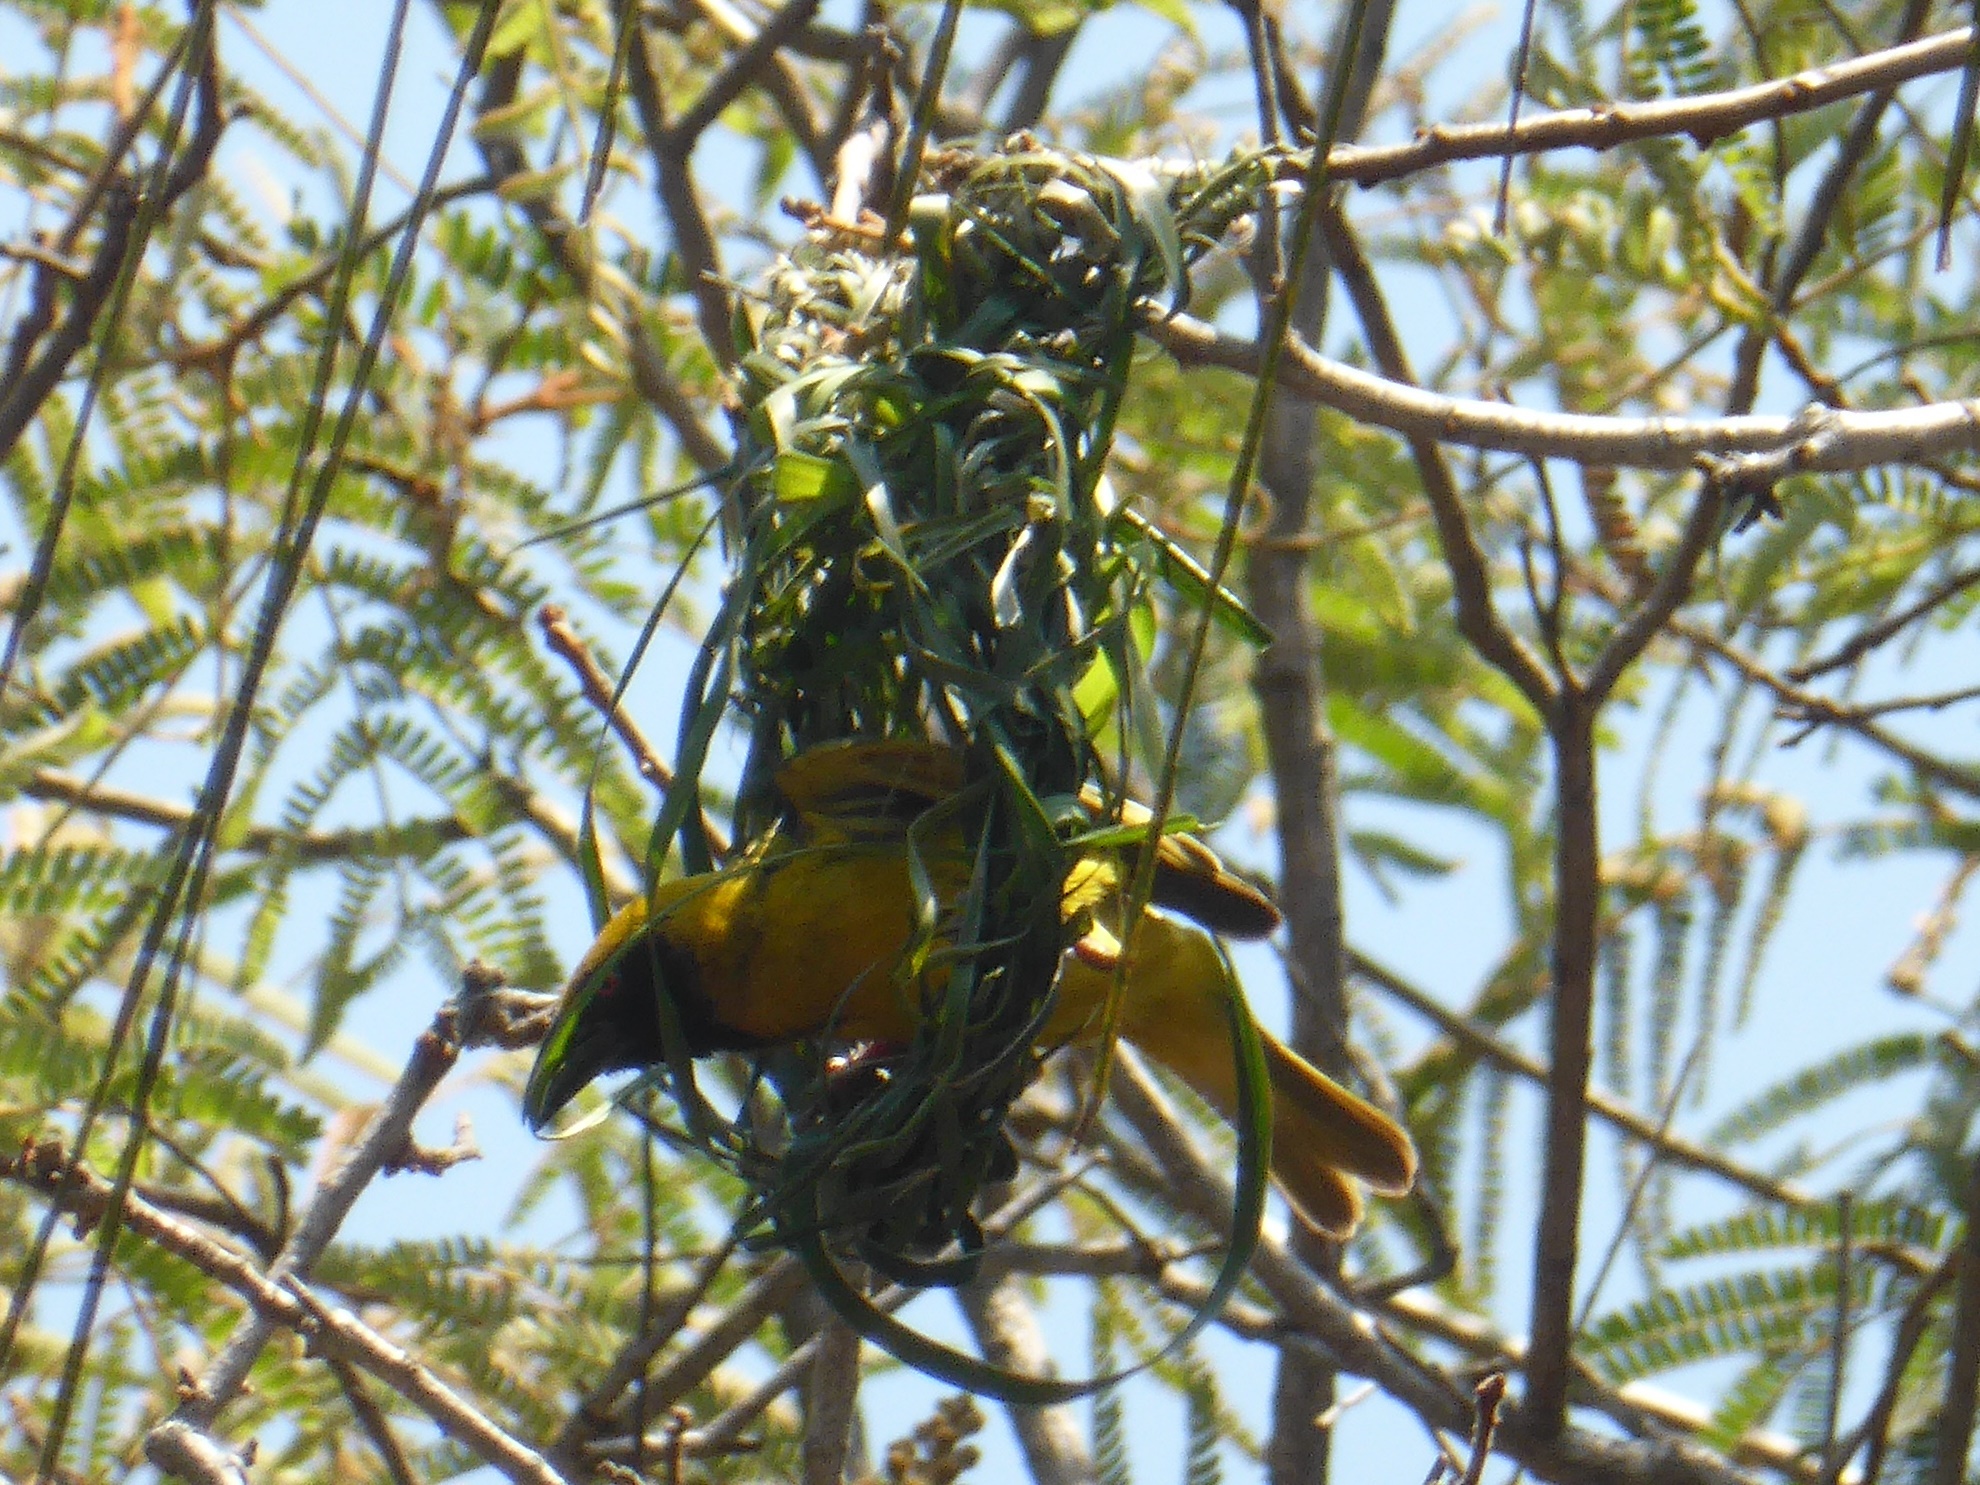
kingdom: Animalia
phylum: Chordata
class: Aves
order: Passeriformes
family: Ploceidae
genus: Ploceus
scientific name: Ploceus cucullatus
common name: Village weaver
